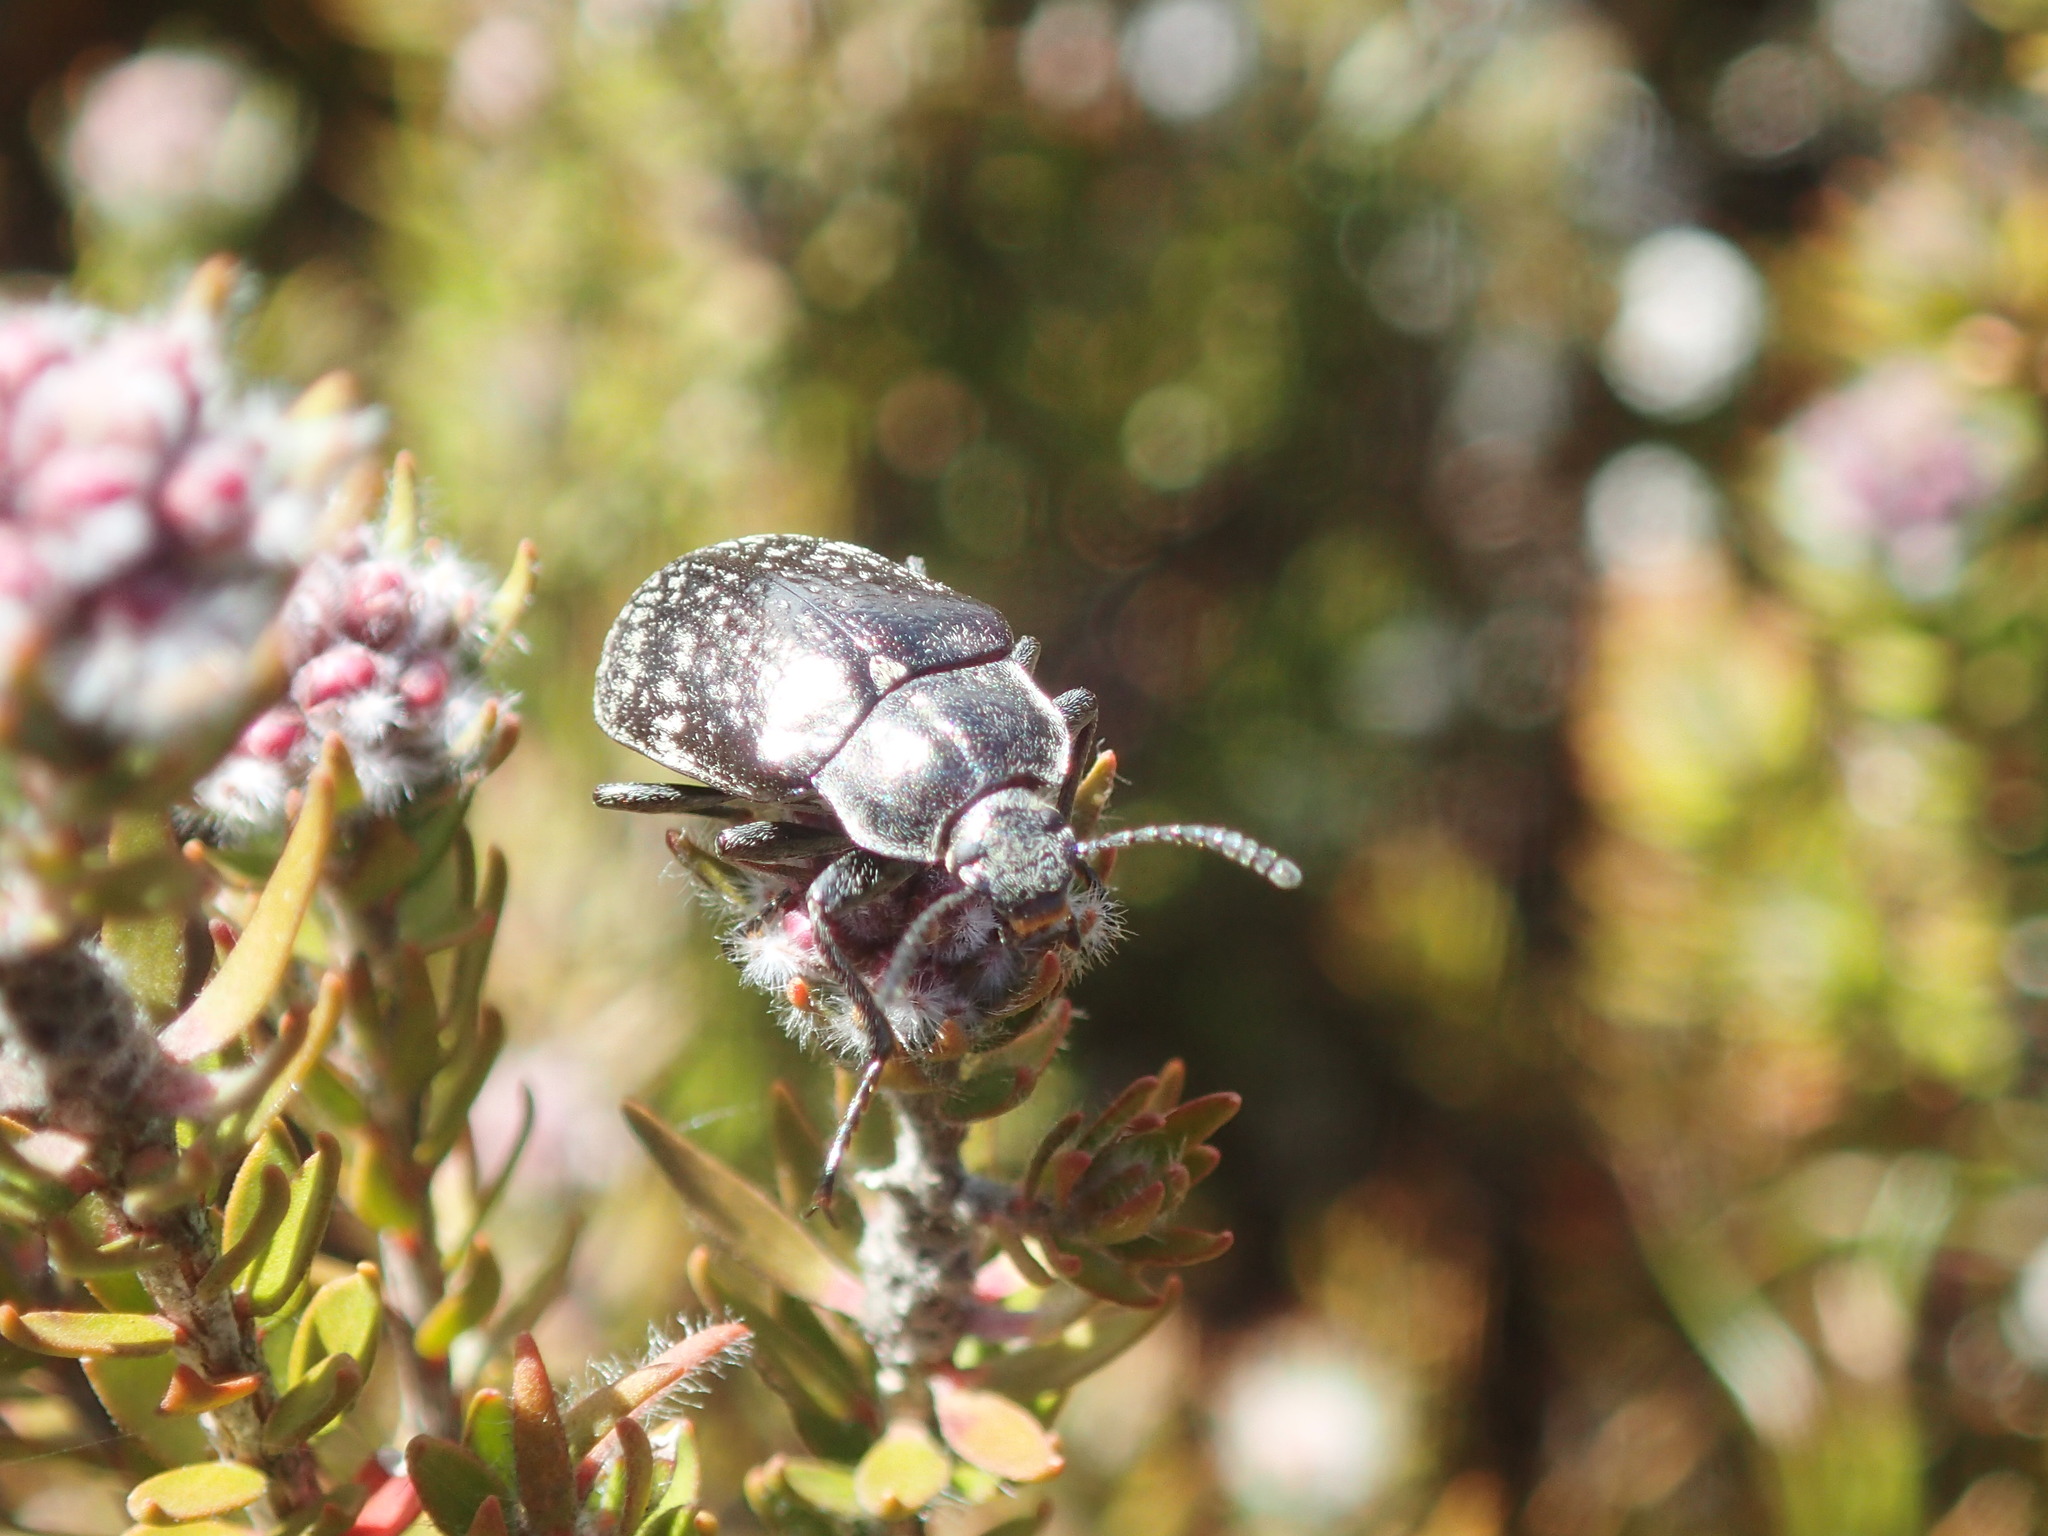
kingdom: Animalia
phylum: Arthropoda
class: Insecta
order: Coleoptera
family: Tenebrionidae
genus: Pachycoelia
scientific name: Pachycoelia
